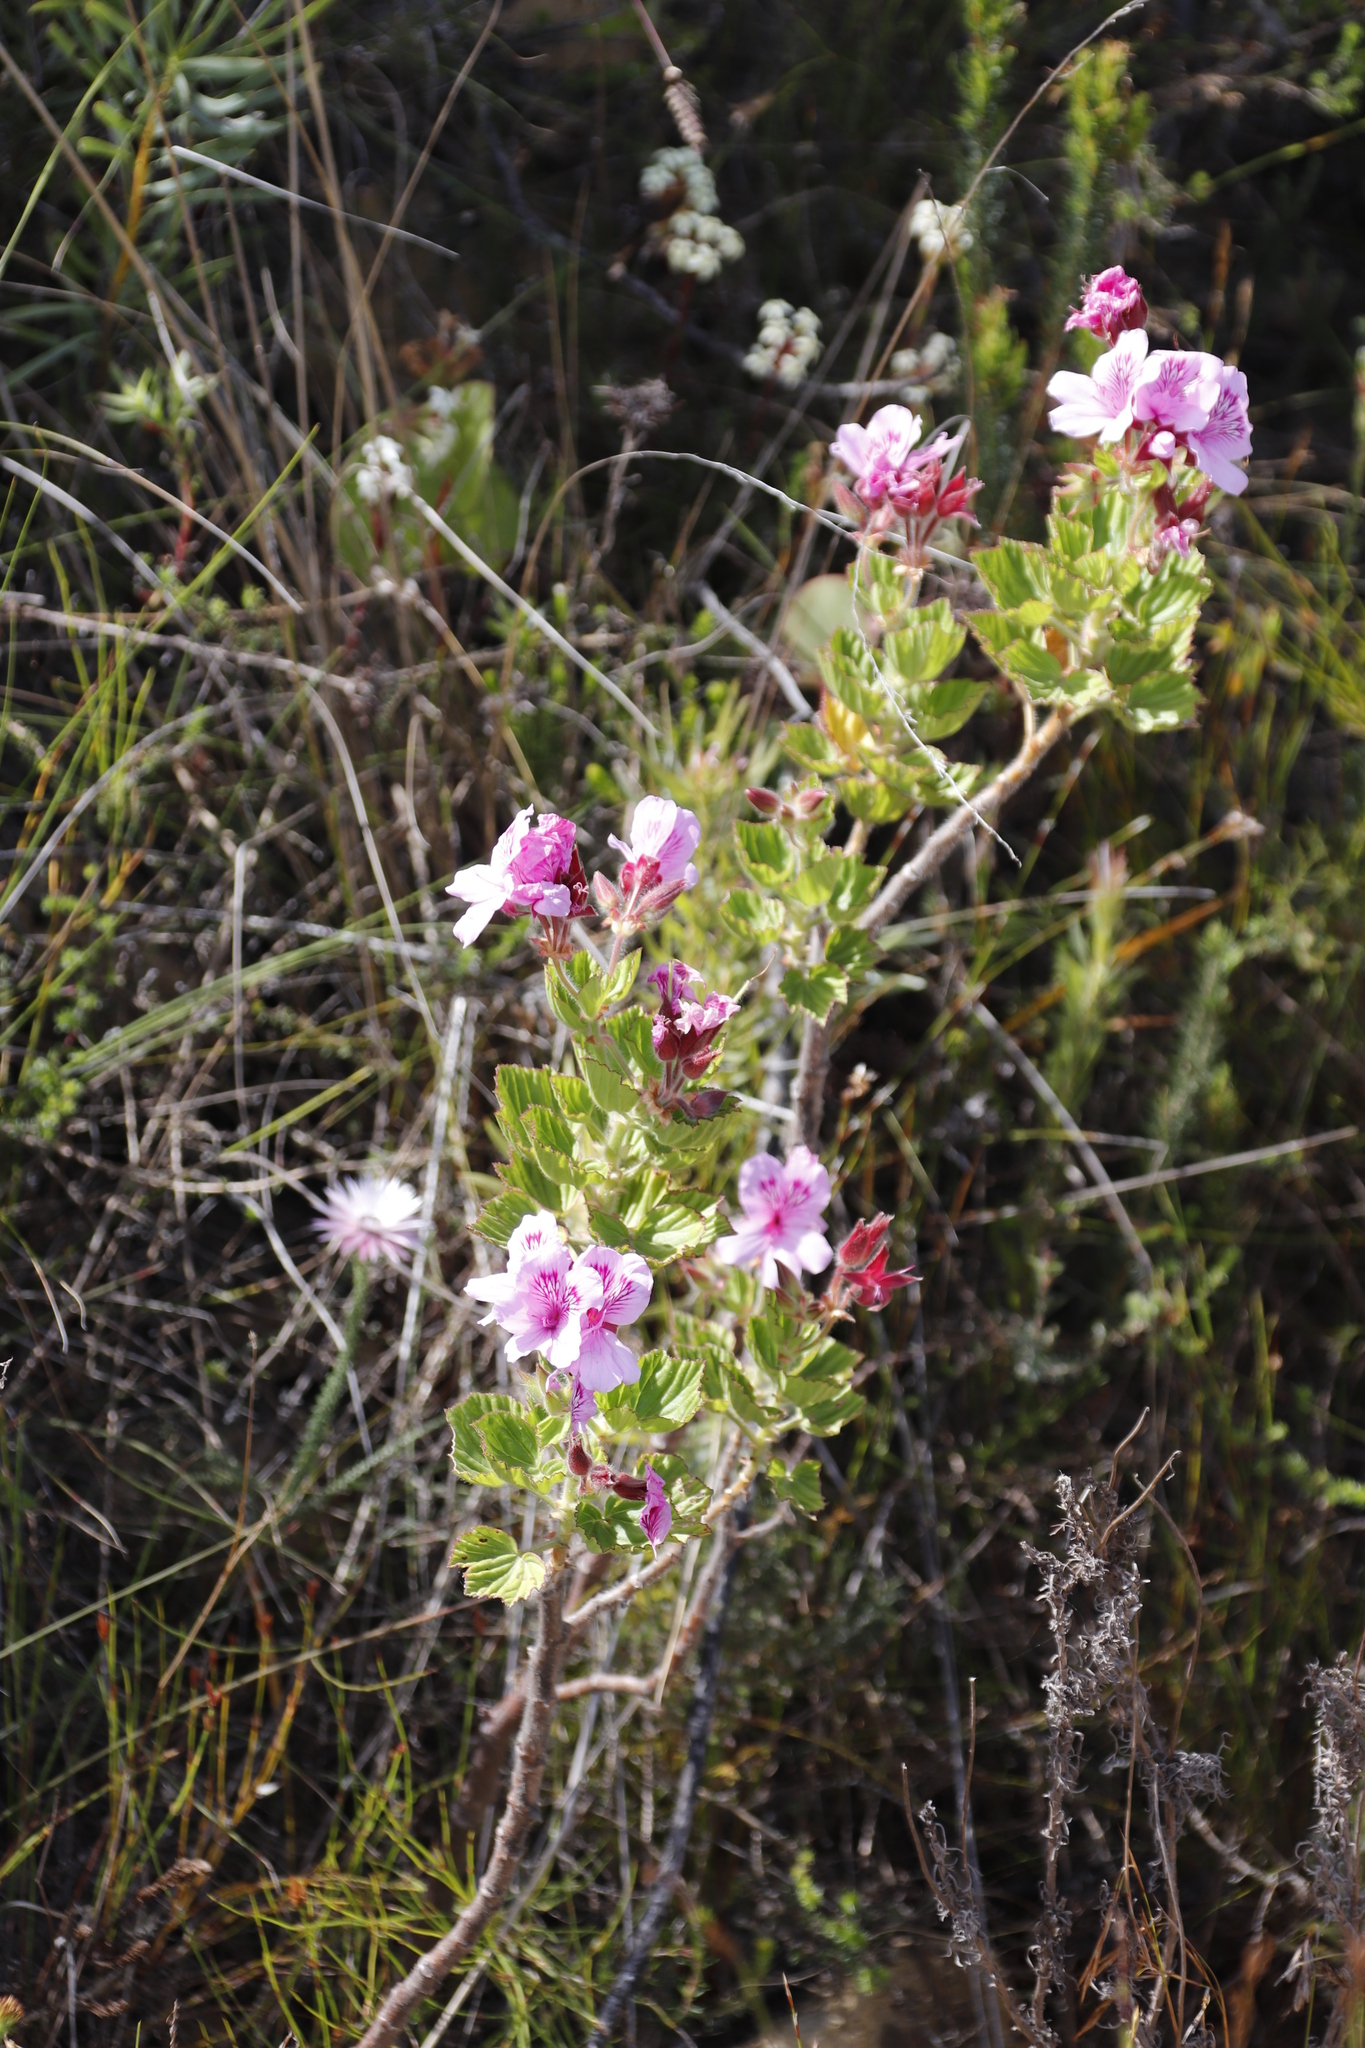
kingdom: Plantae
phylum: Tracheophyta
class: Magnoliopsida
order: Geraniales
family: Geraniaceae
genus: Pelargonium
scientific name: Pelargonium cucullatum
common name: Tree pelargonium
